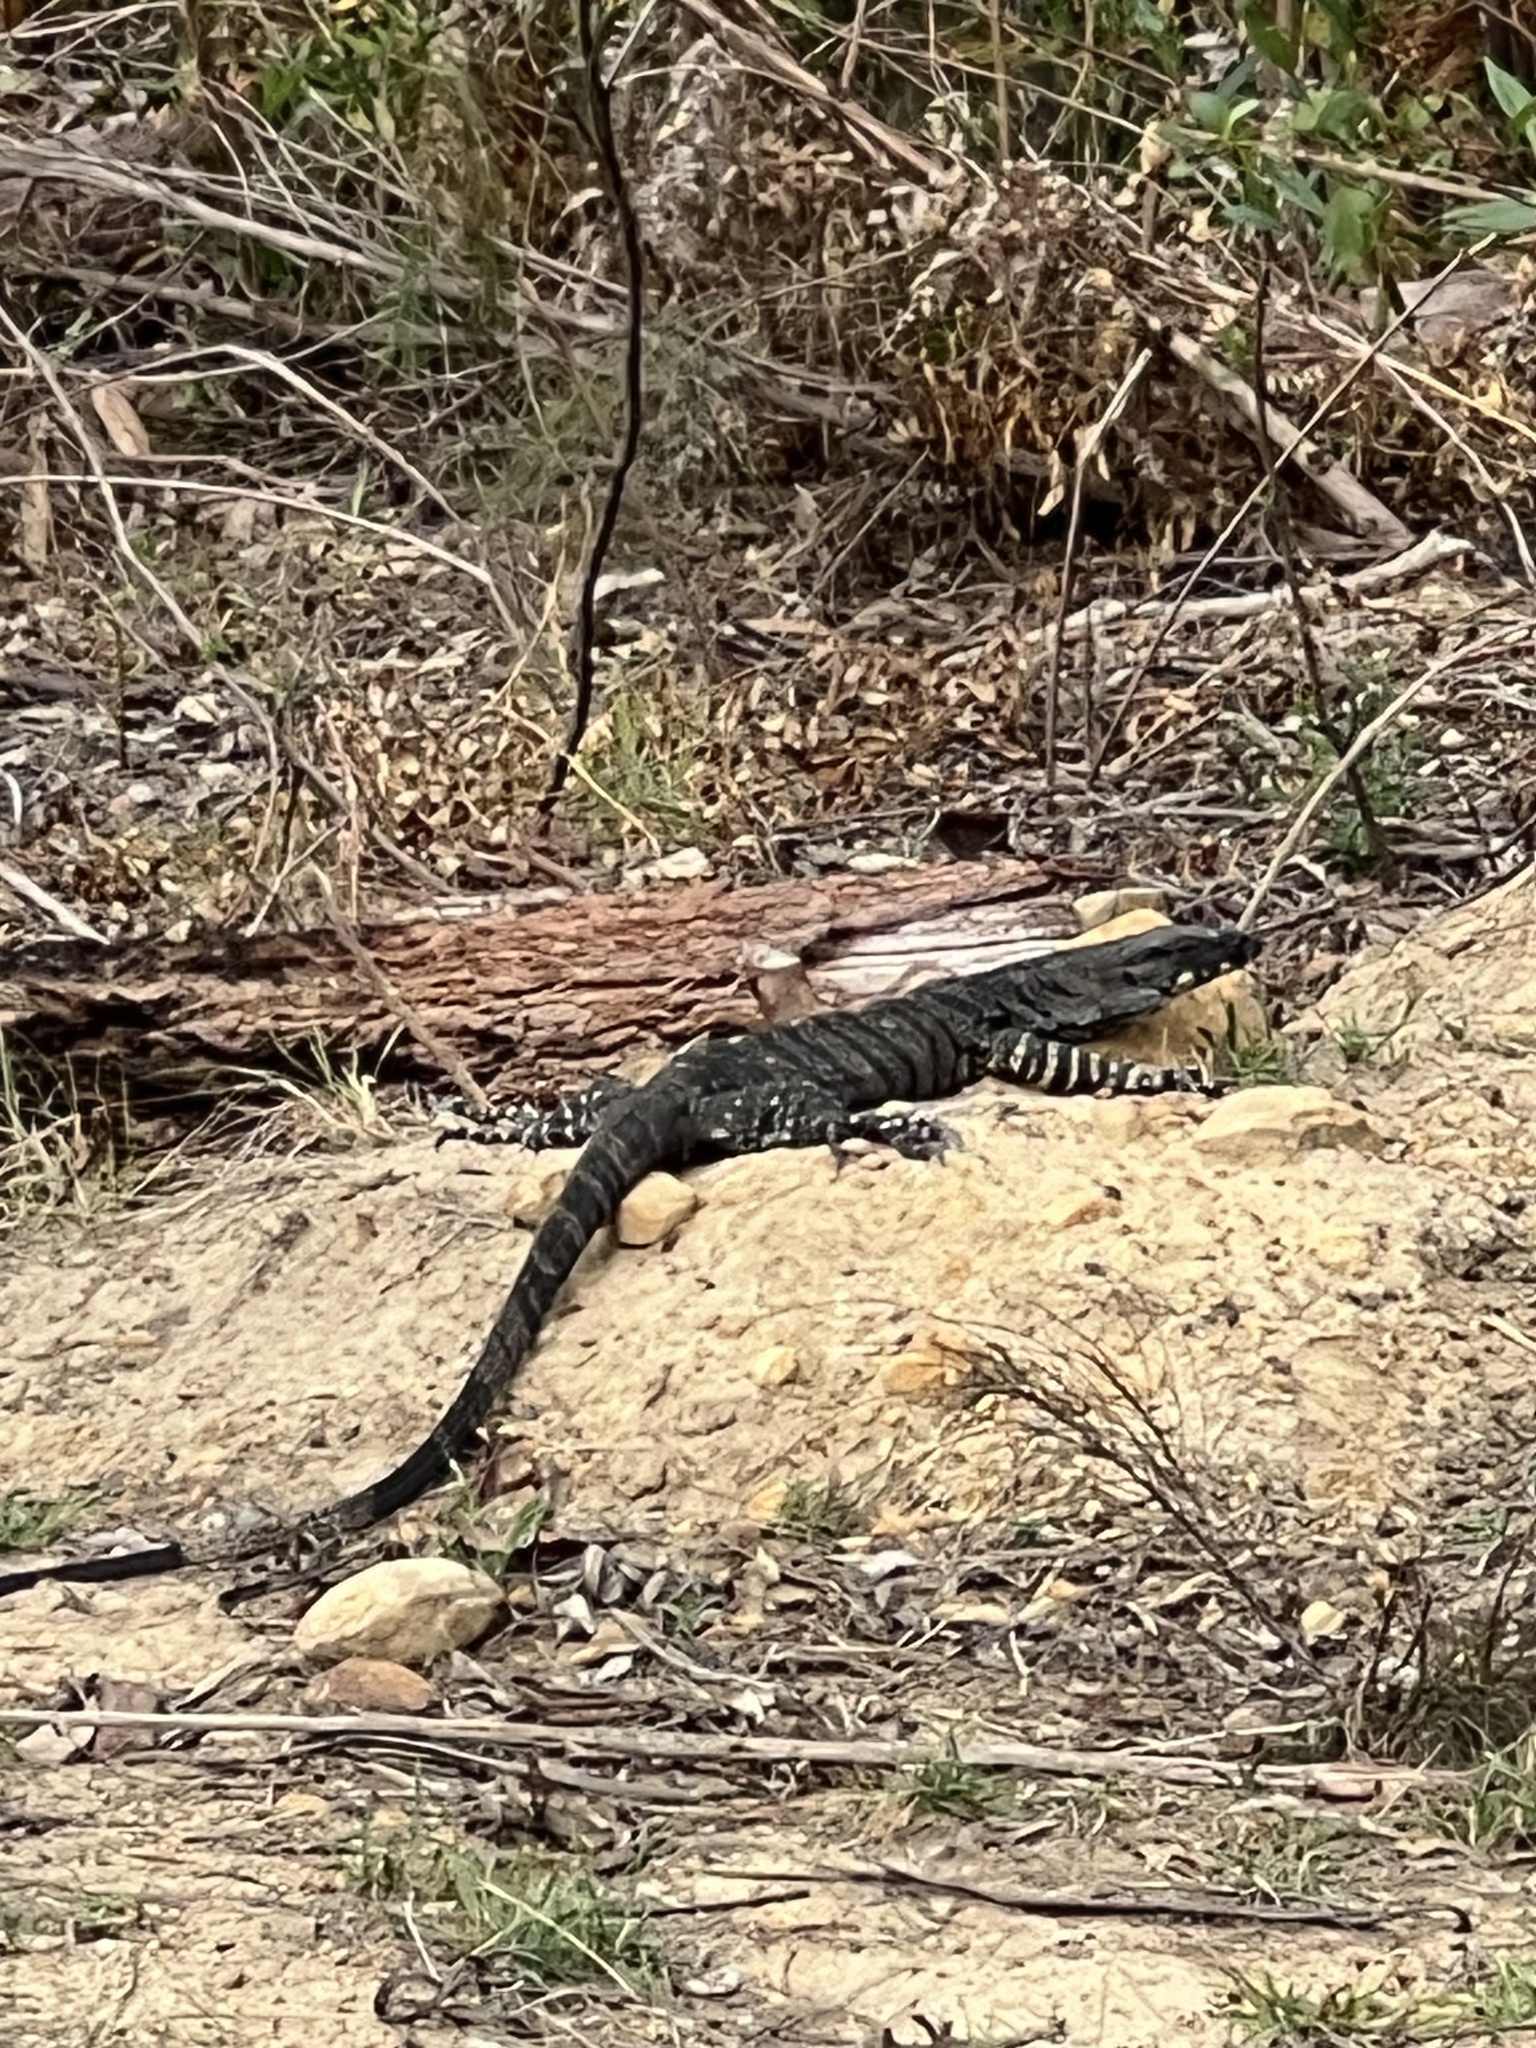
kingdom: Animalia
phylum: Chordata
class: Squamata
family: Varanidae
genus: Varanus
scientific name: Varanus varius
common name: Lace monitor
